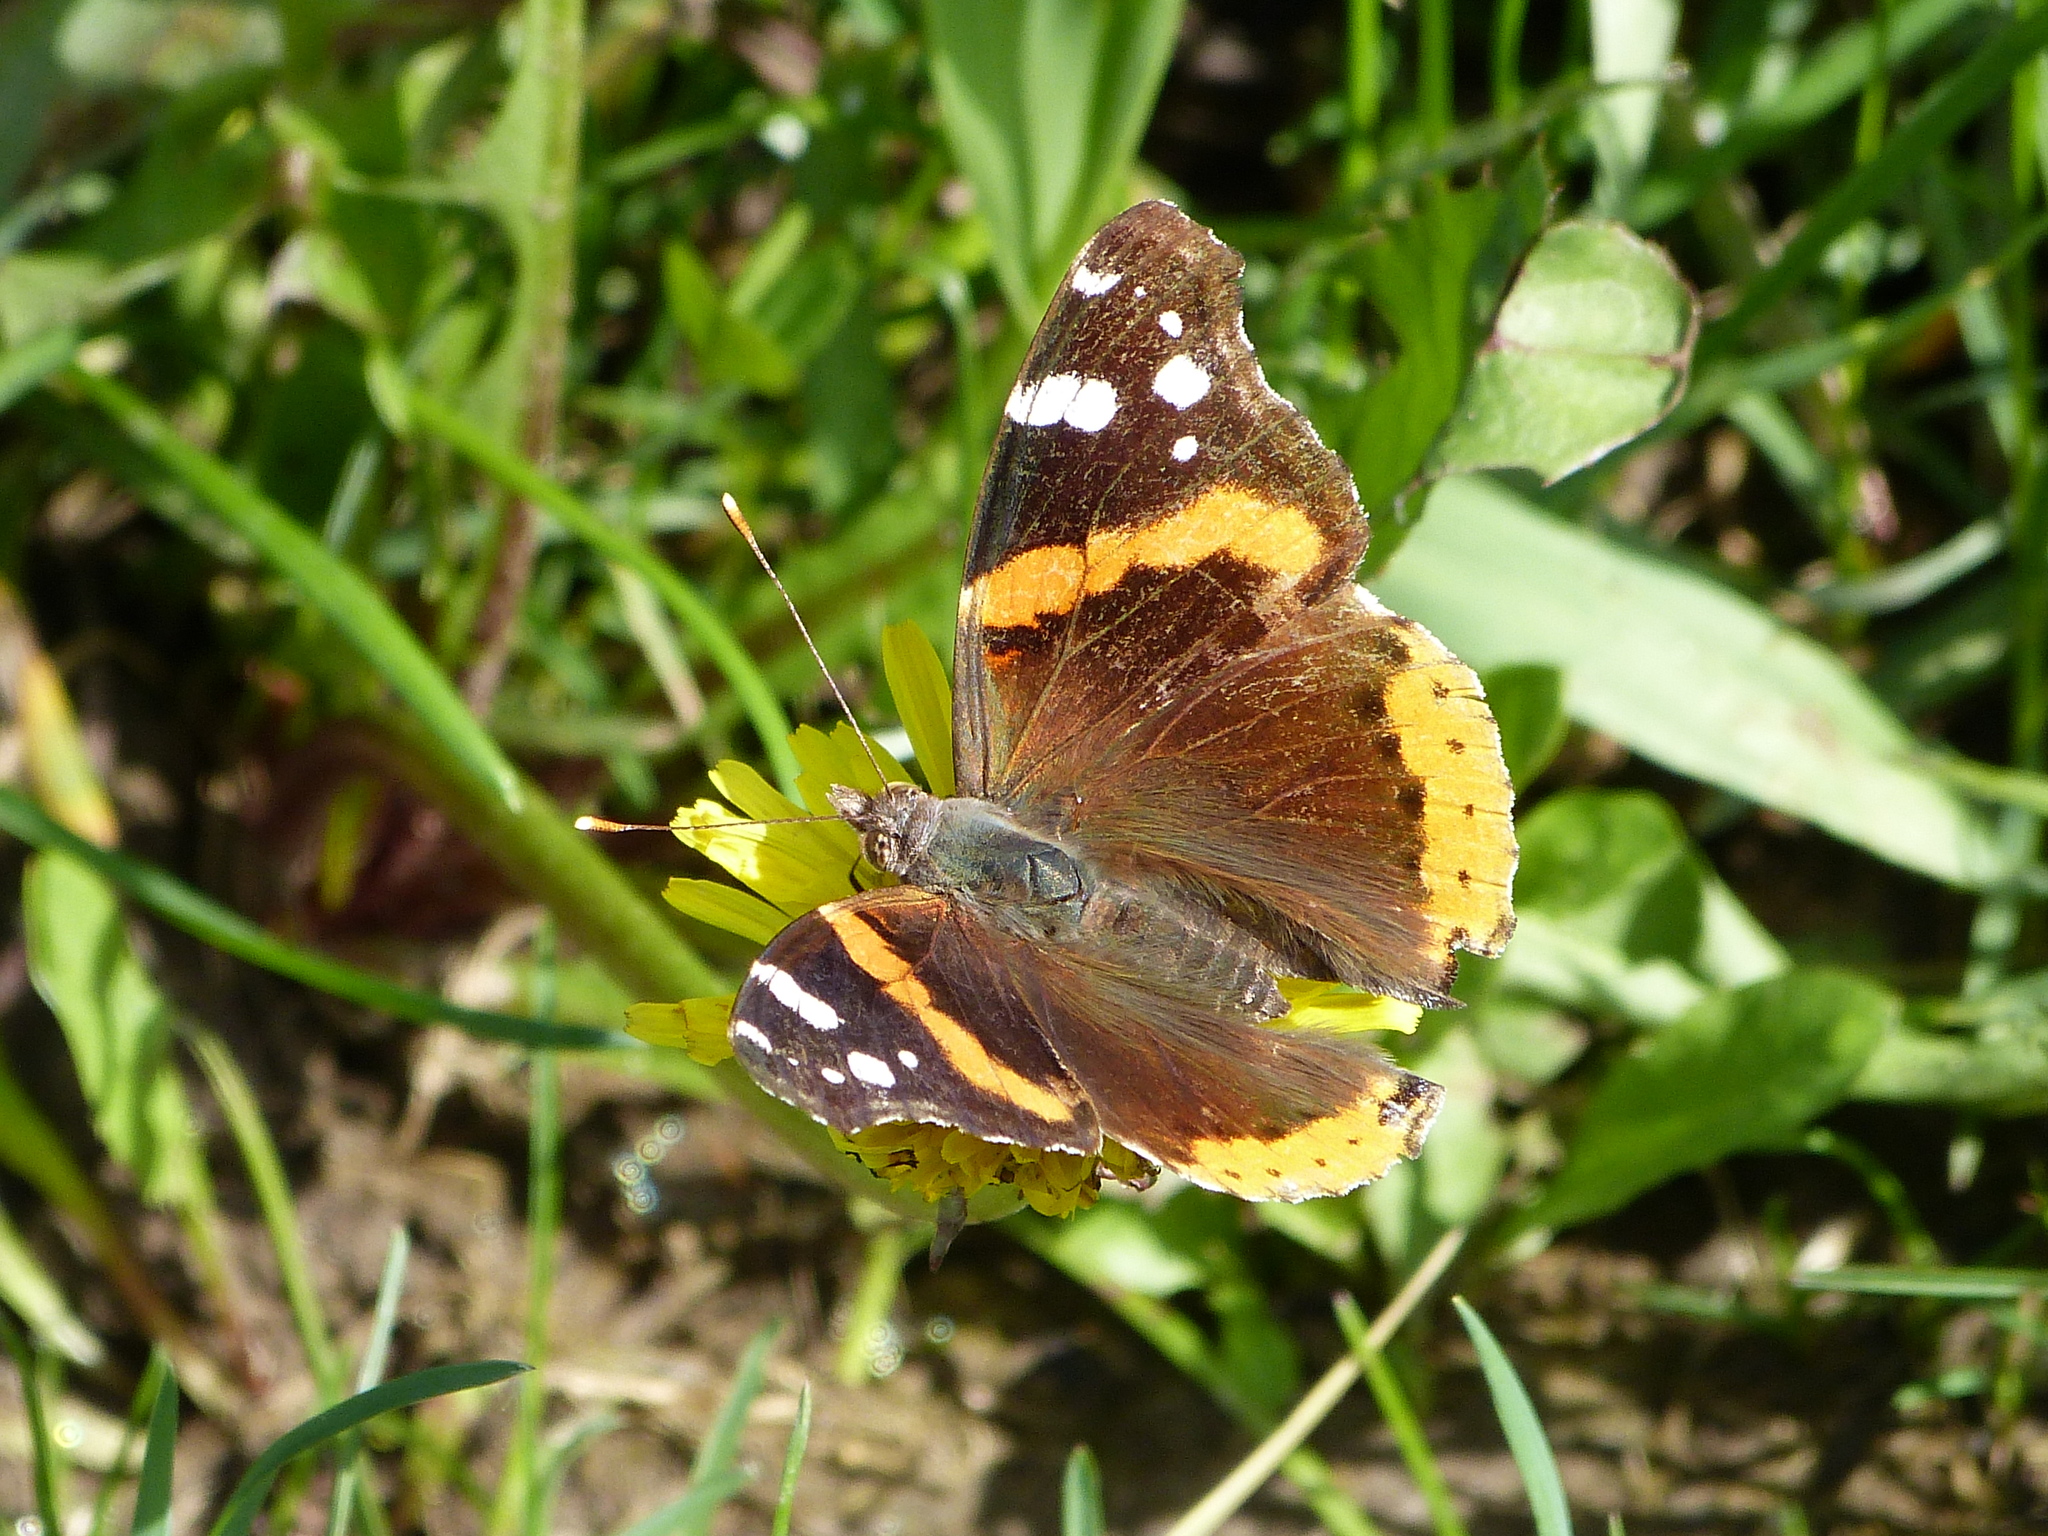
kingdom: Animalia
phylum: Arthropoda
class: Insecta
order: Lepidoptera
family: Nymphalidae
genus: Vanessa
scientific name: Vanessa atalanta
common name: Red admiral
